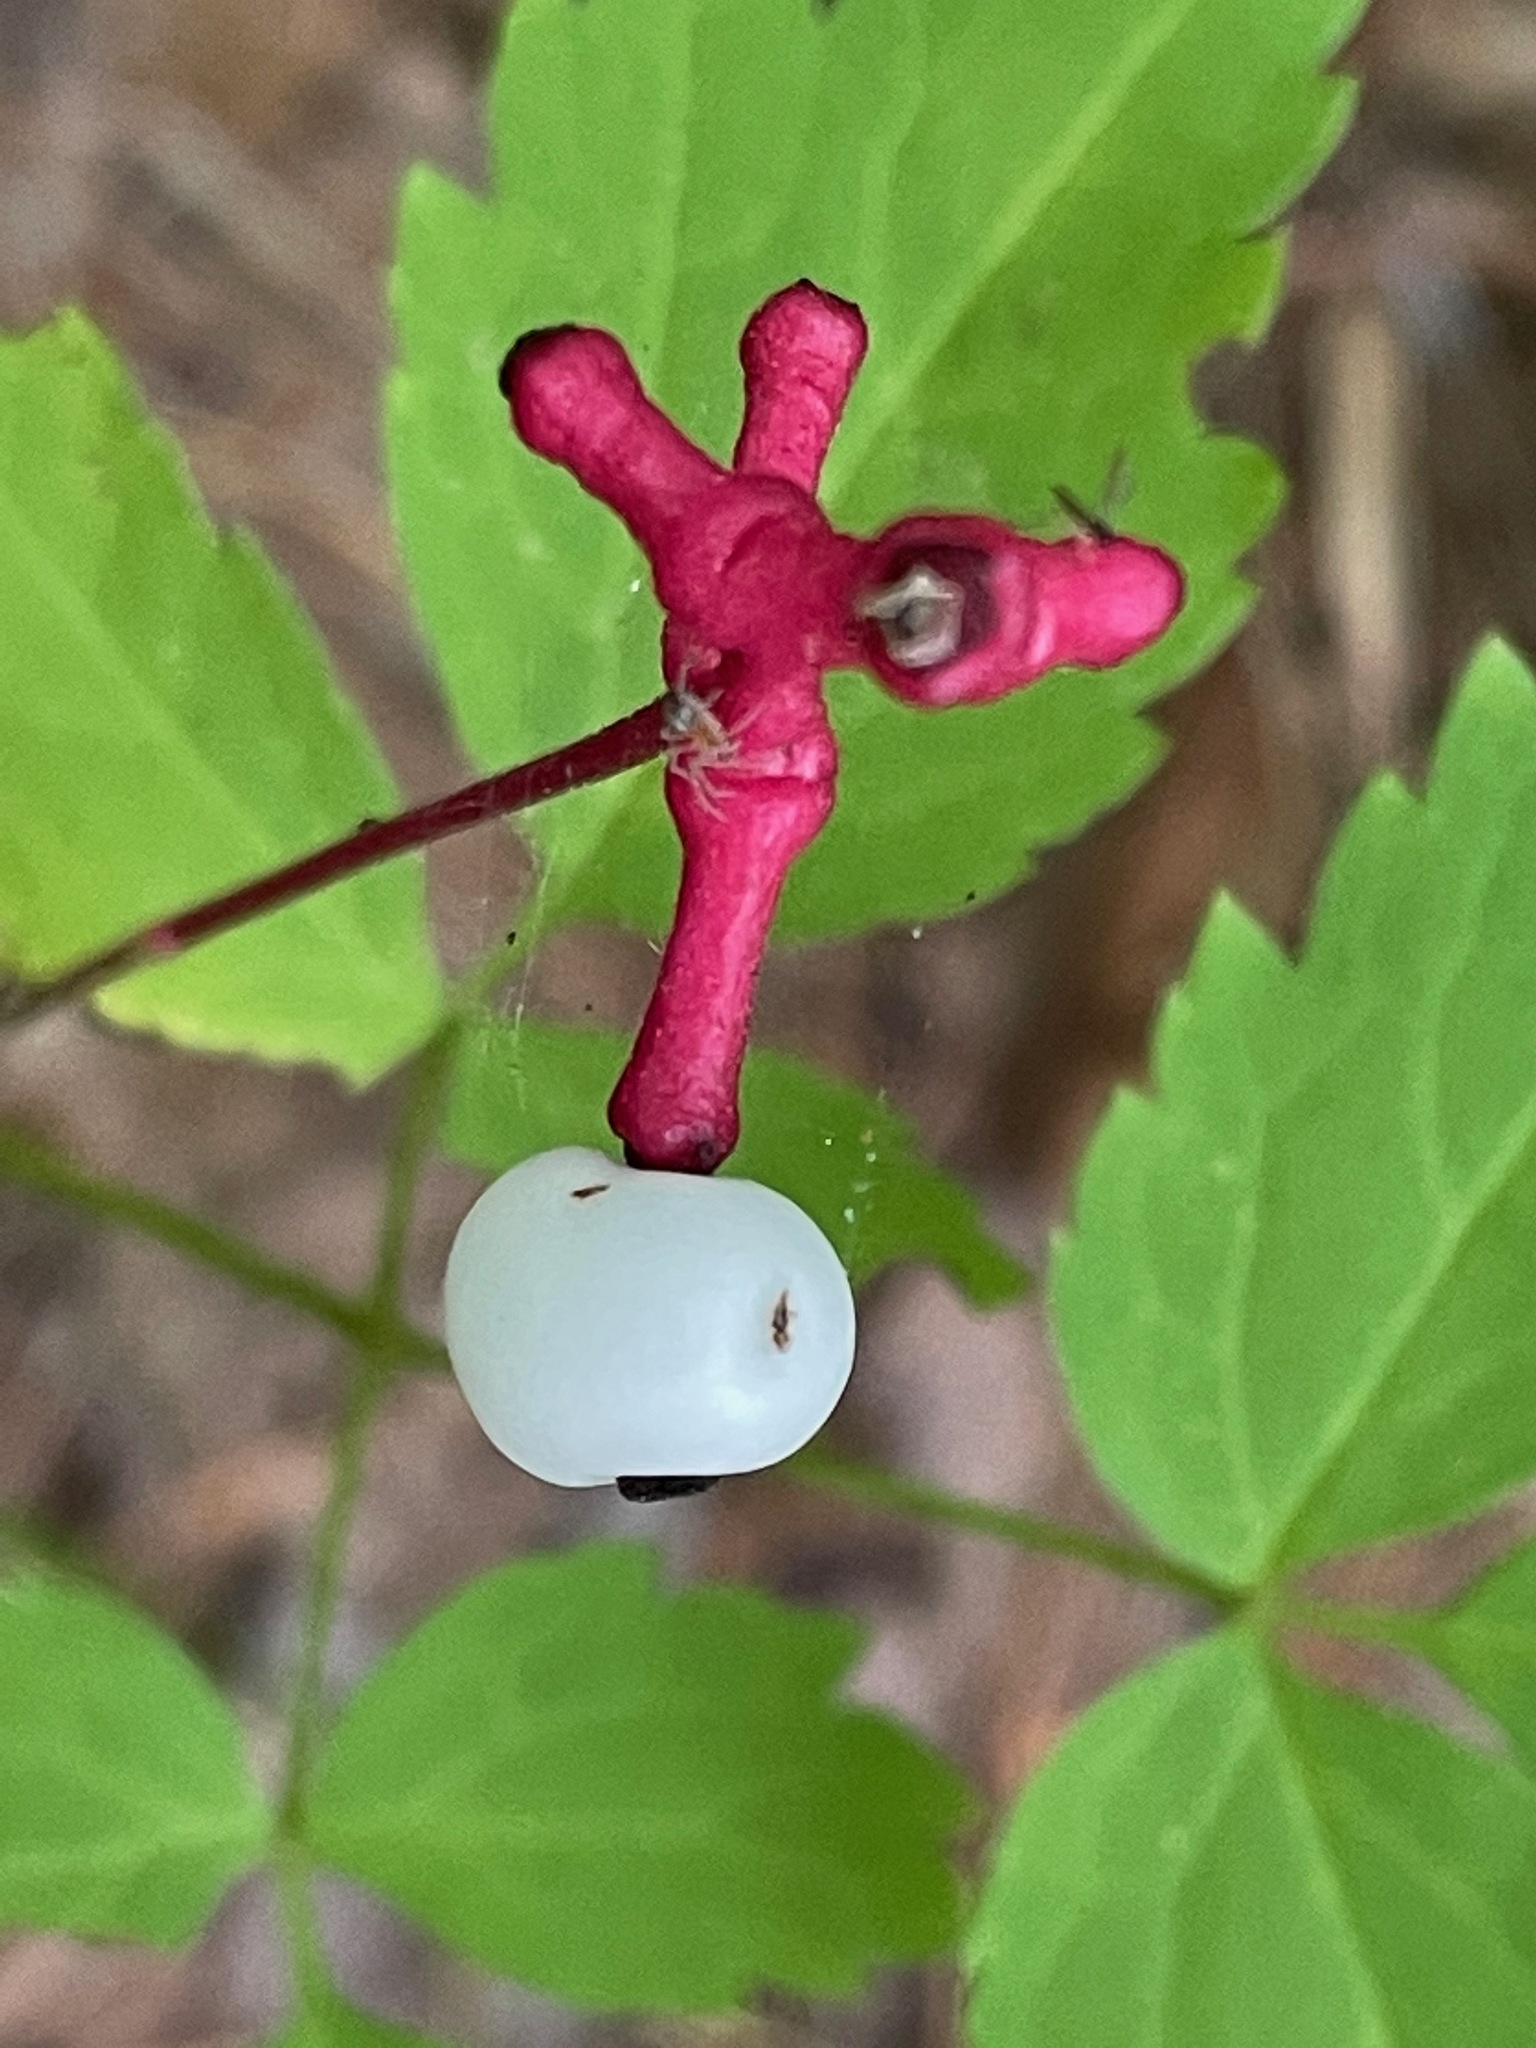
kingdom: Plantae
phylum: Tracheophyta
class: Magnoliopsida
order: Ranunculales
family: Ranunculaceae
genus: Actaea
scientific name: Actaea pachypoda
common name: Doll's-eyes
